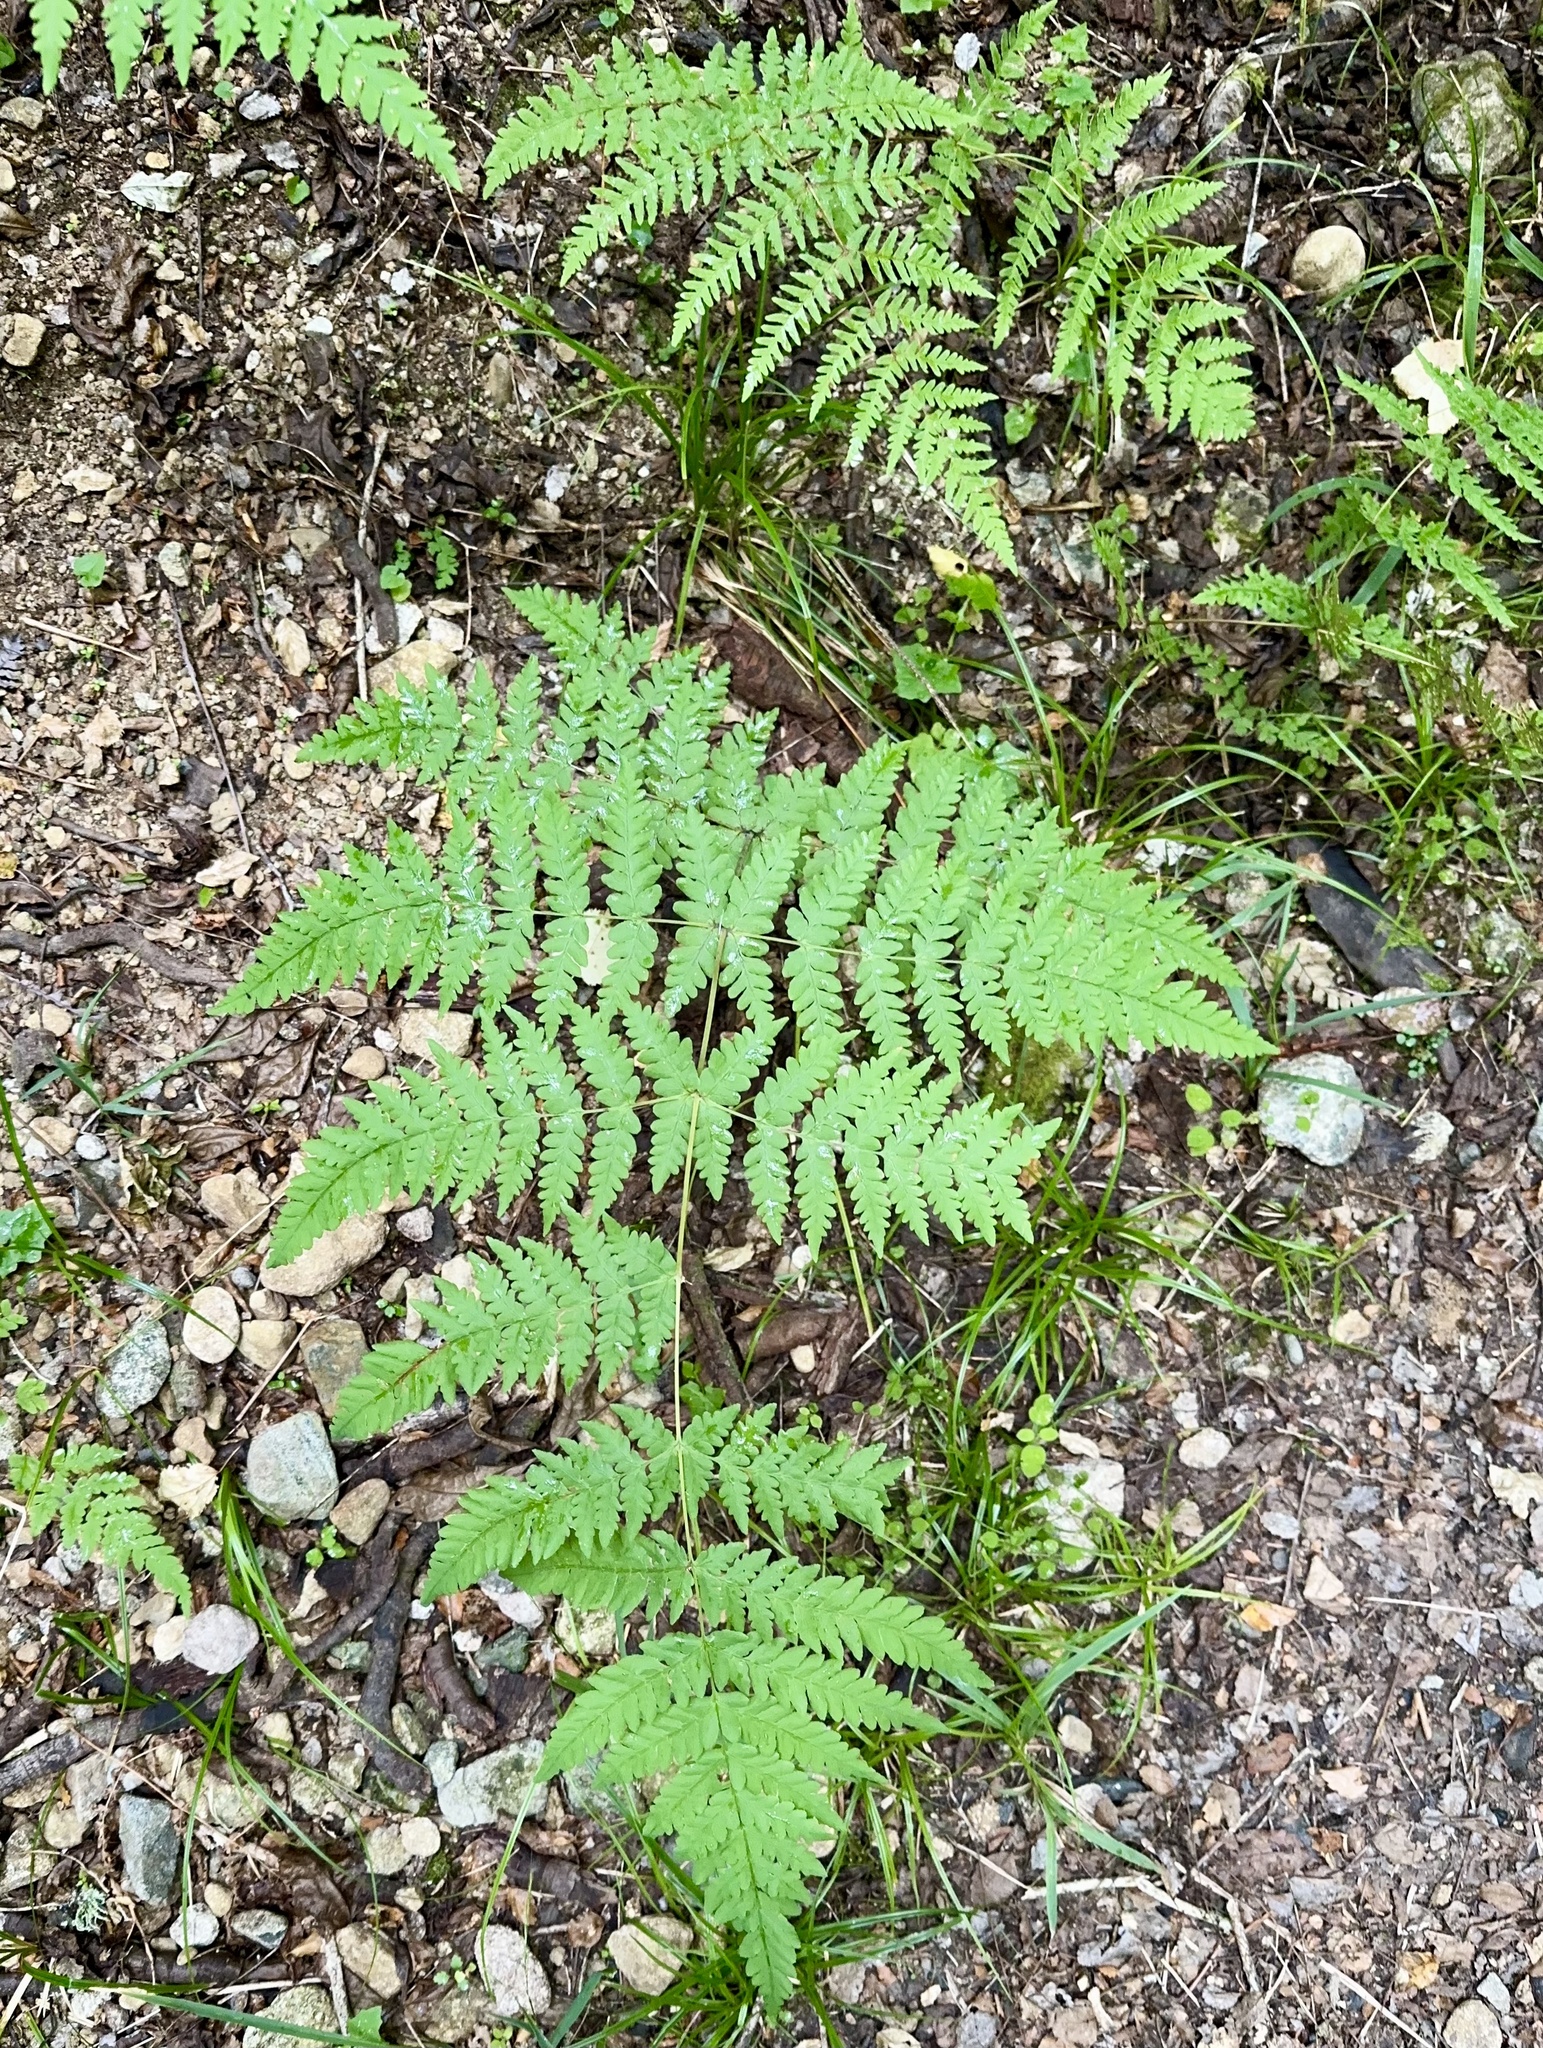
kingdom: Plantae
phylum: Tracheophyta
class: Polypodiopsida
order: Polypodiales
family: Dennstaedtiaceae
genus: Histiopteris
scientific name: Histiopteris incisa
